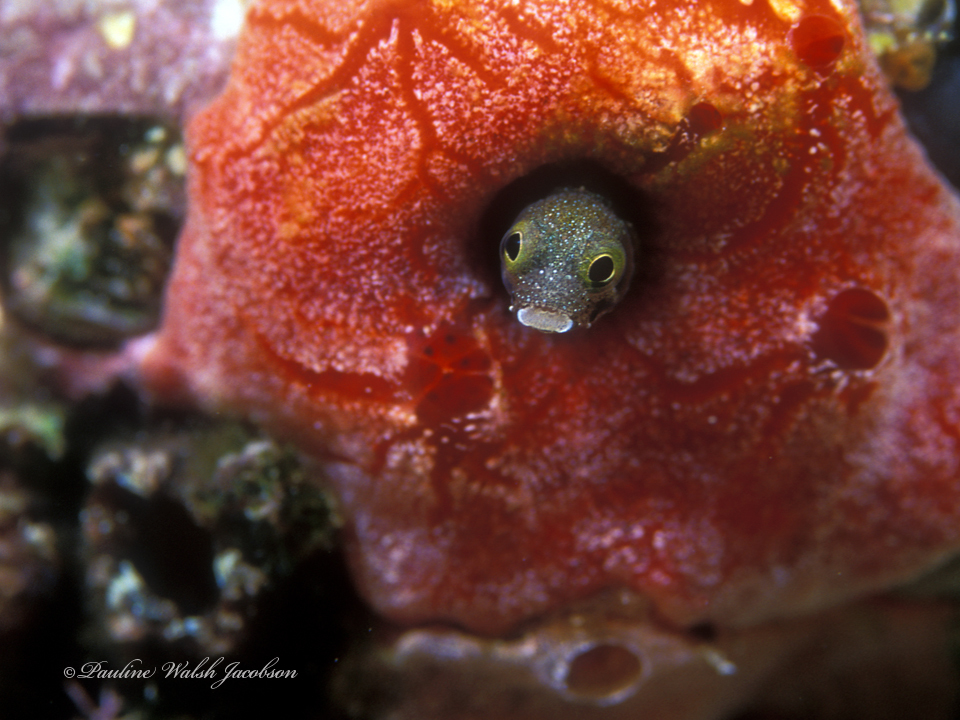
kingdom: Animalia
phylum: Chordata
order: Perciformes
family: Chaenopsidae
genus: Acanthemblemaria
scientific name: Acanthemblemaria spinosa
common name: Spinyhead blenny
